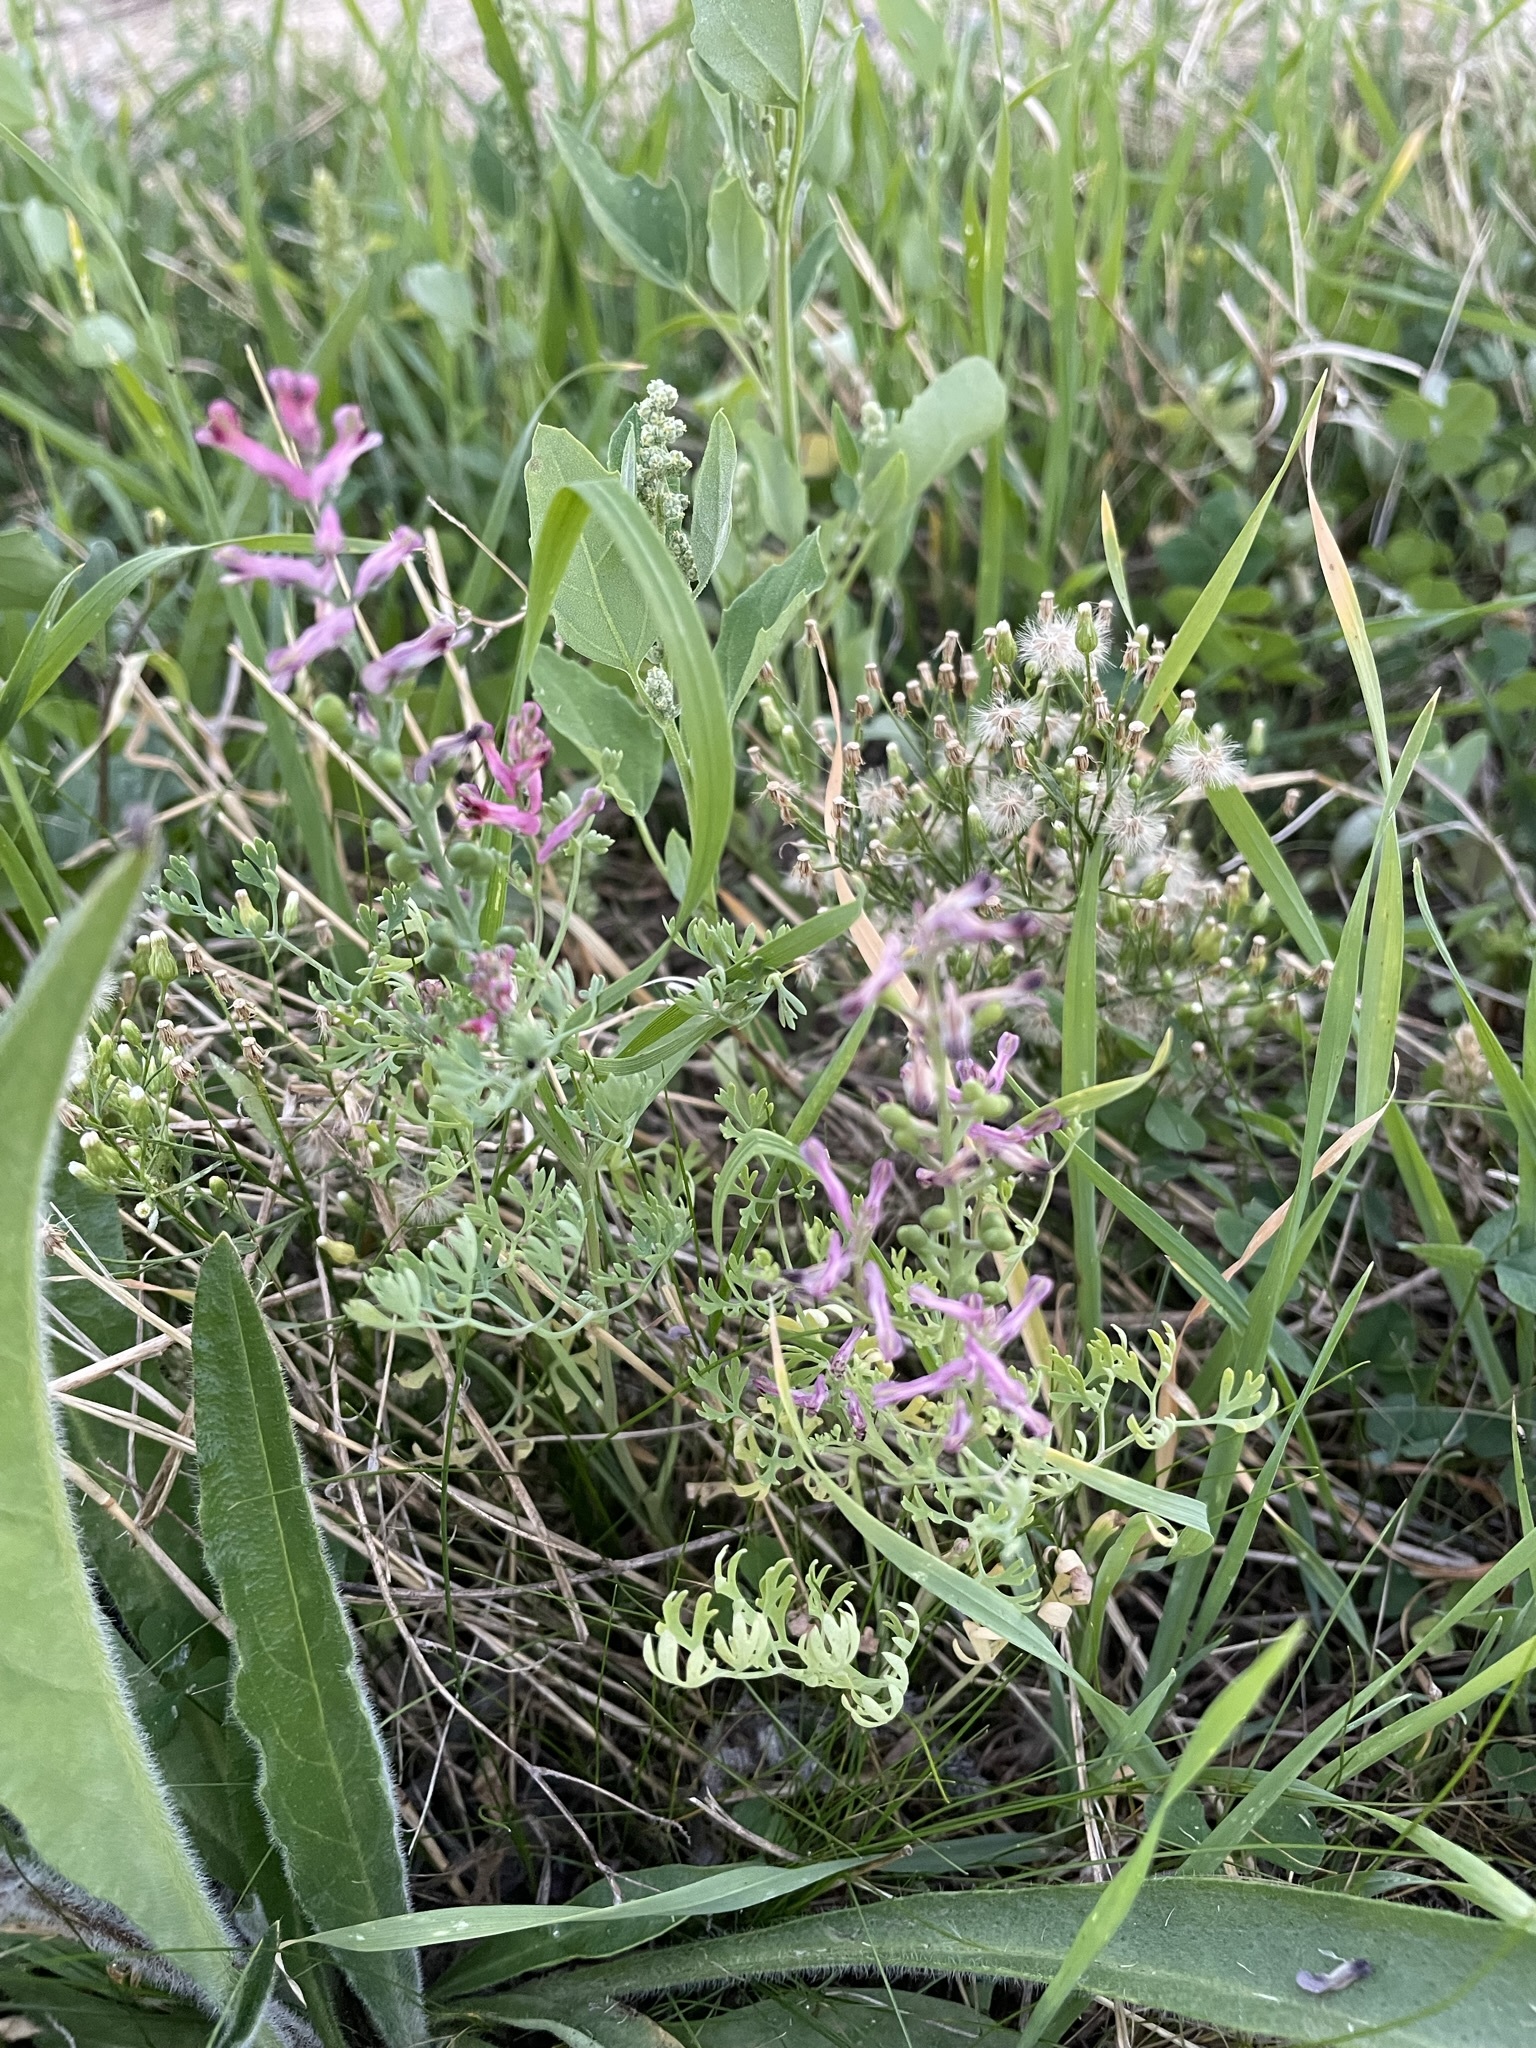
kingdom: Plantae
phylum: Tracheophyta
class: Magnoliopsida
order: Ranunculales
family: Papaveraceae
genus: Fumaria
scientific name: Fumaria officinalis
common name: Common fumitory
